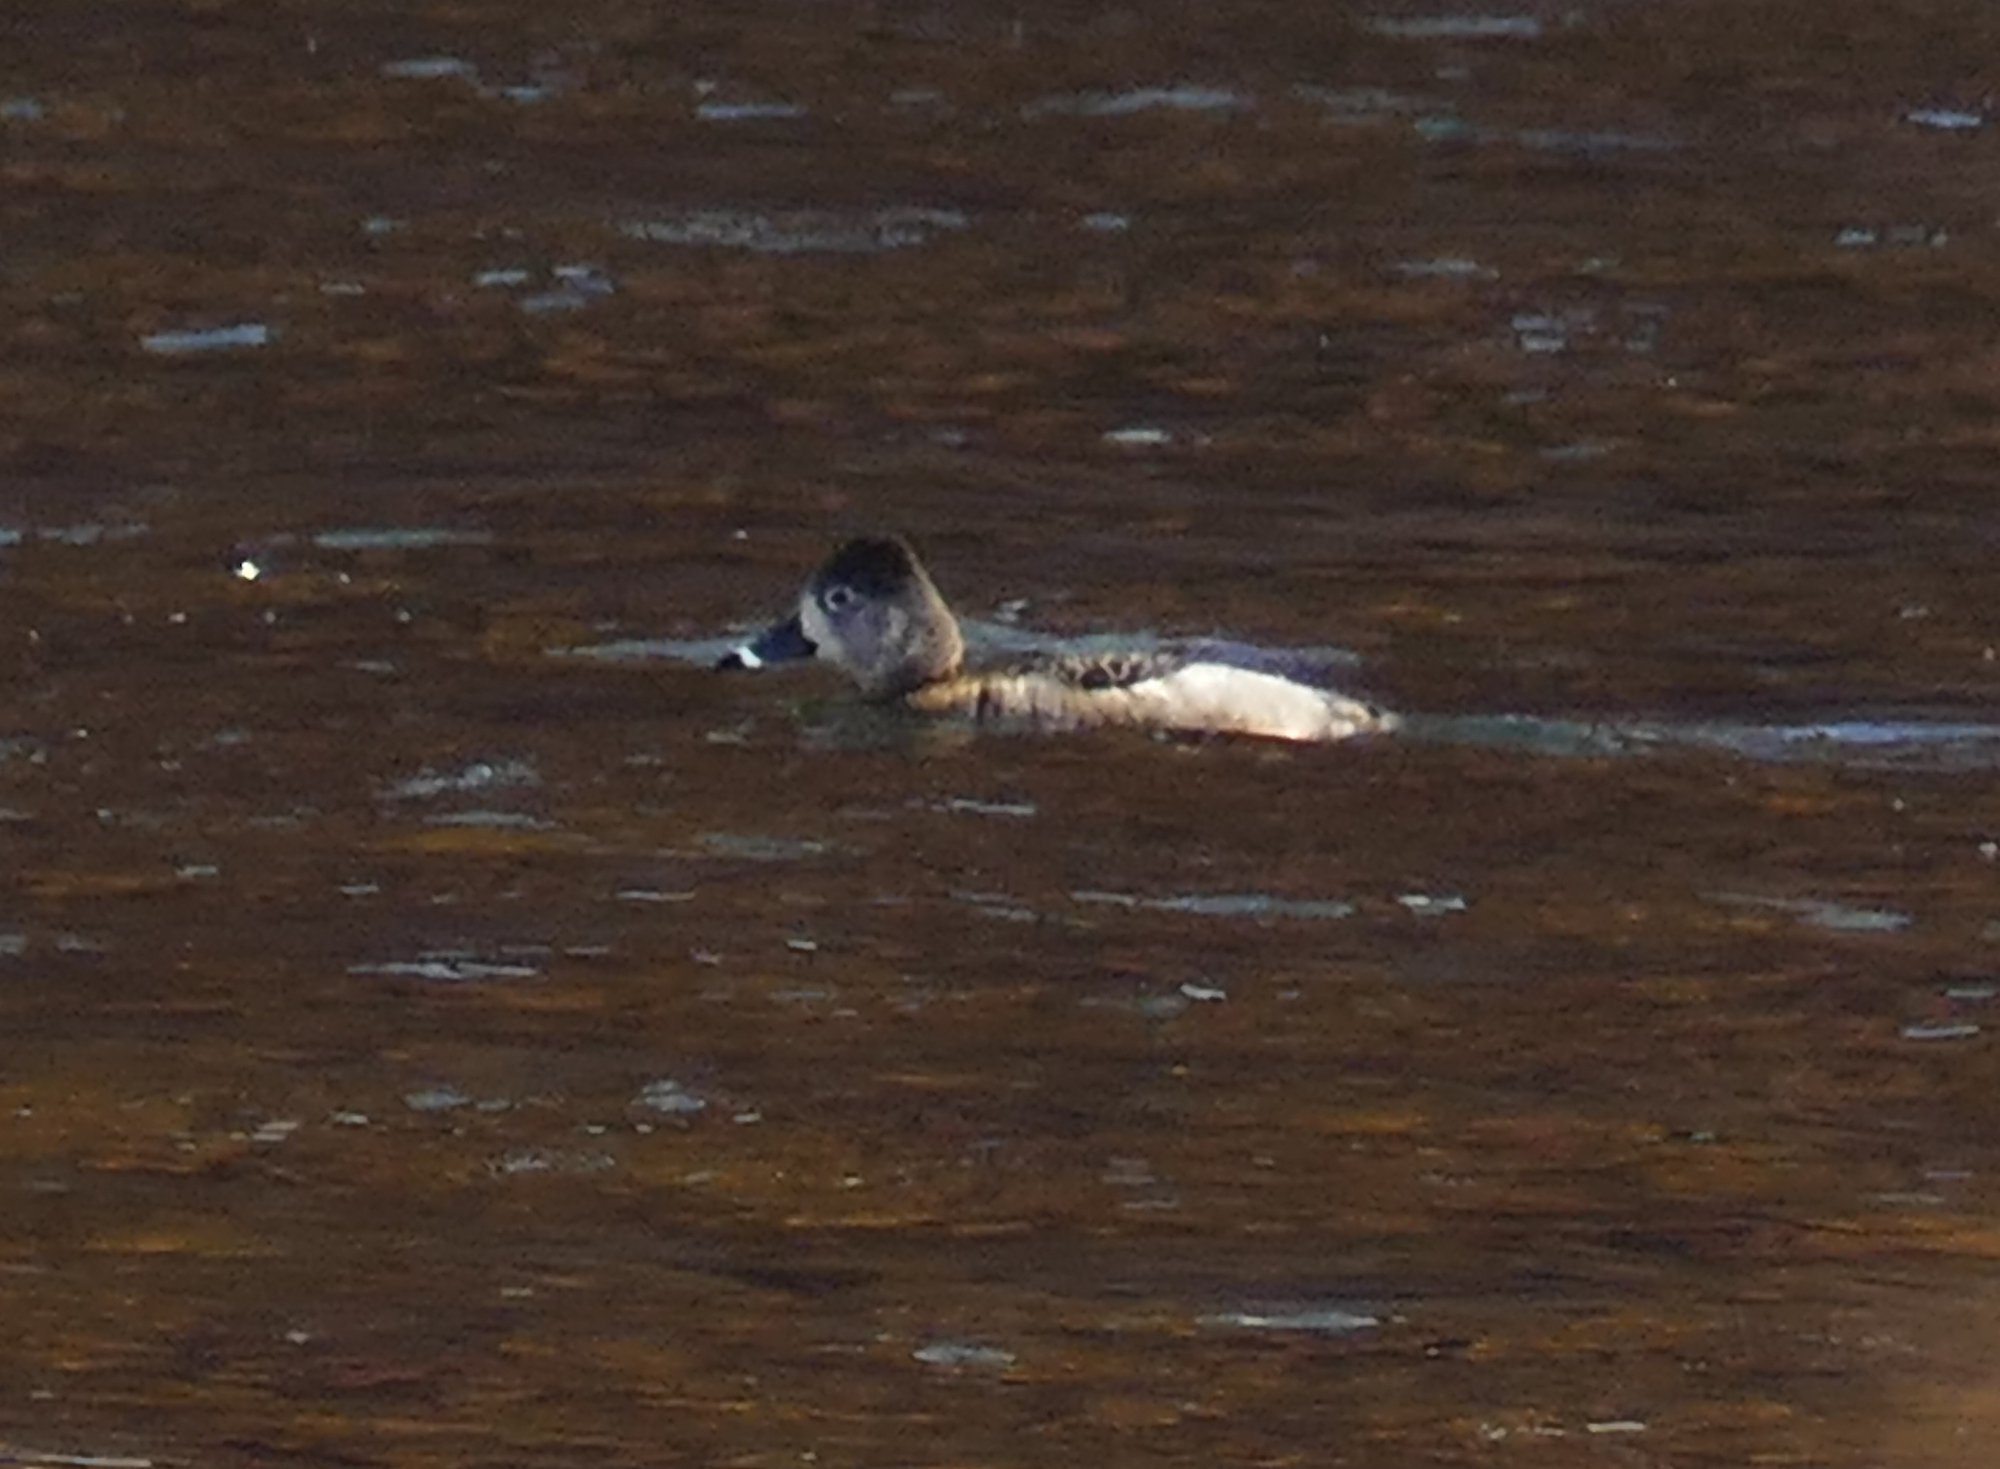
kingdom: Animalia
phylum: Chordata
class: Aves
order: Anseriformes
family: Anatidae
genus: Aythya
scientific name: Aythya collaris
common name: Ring-necked duck
